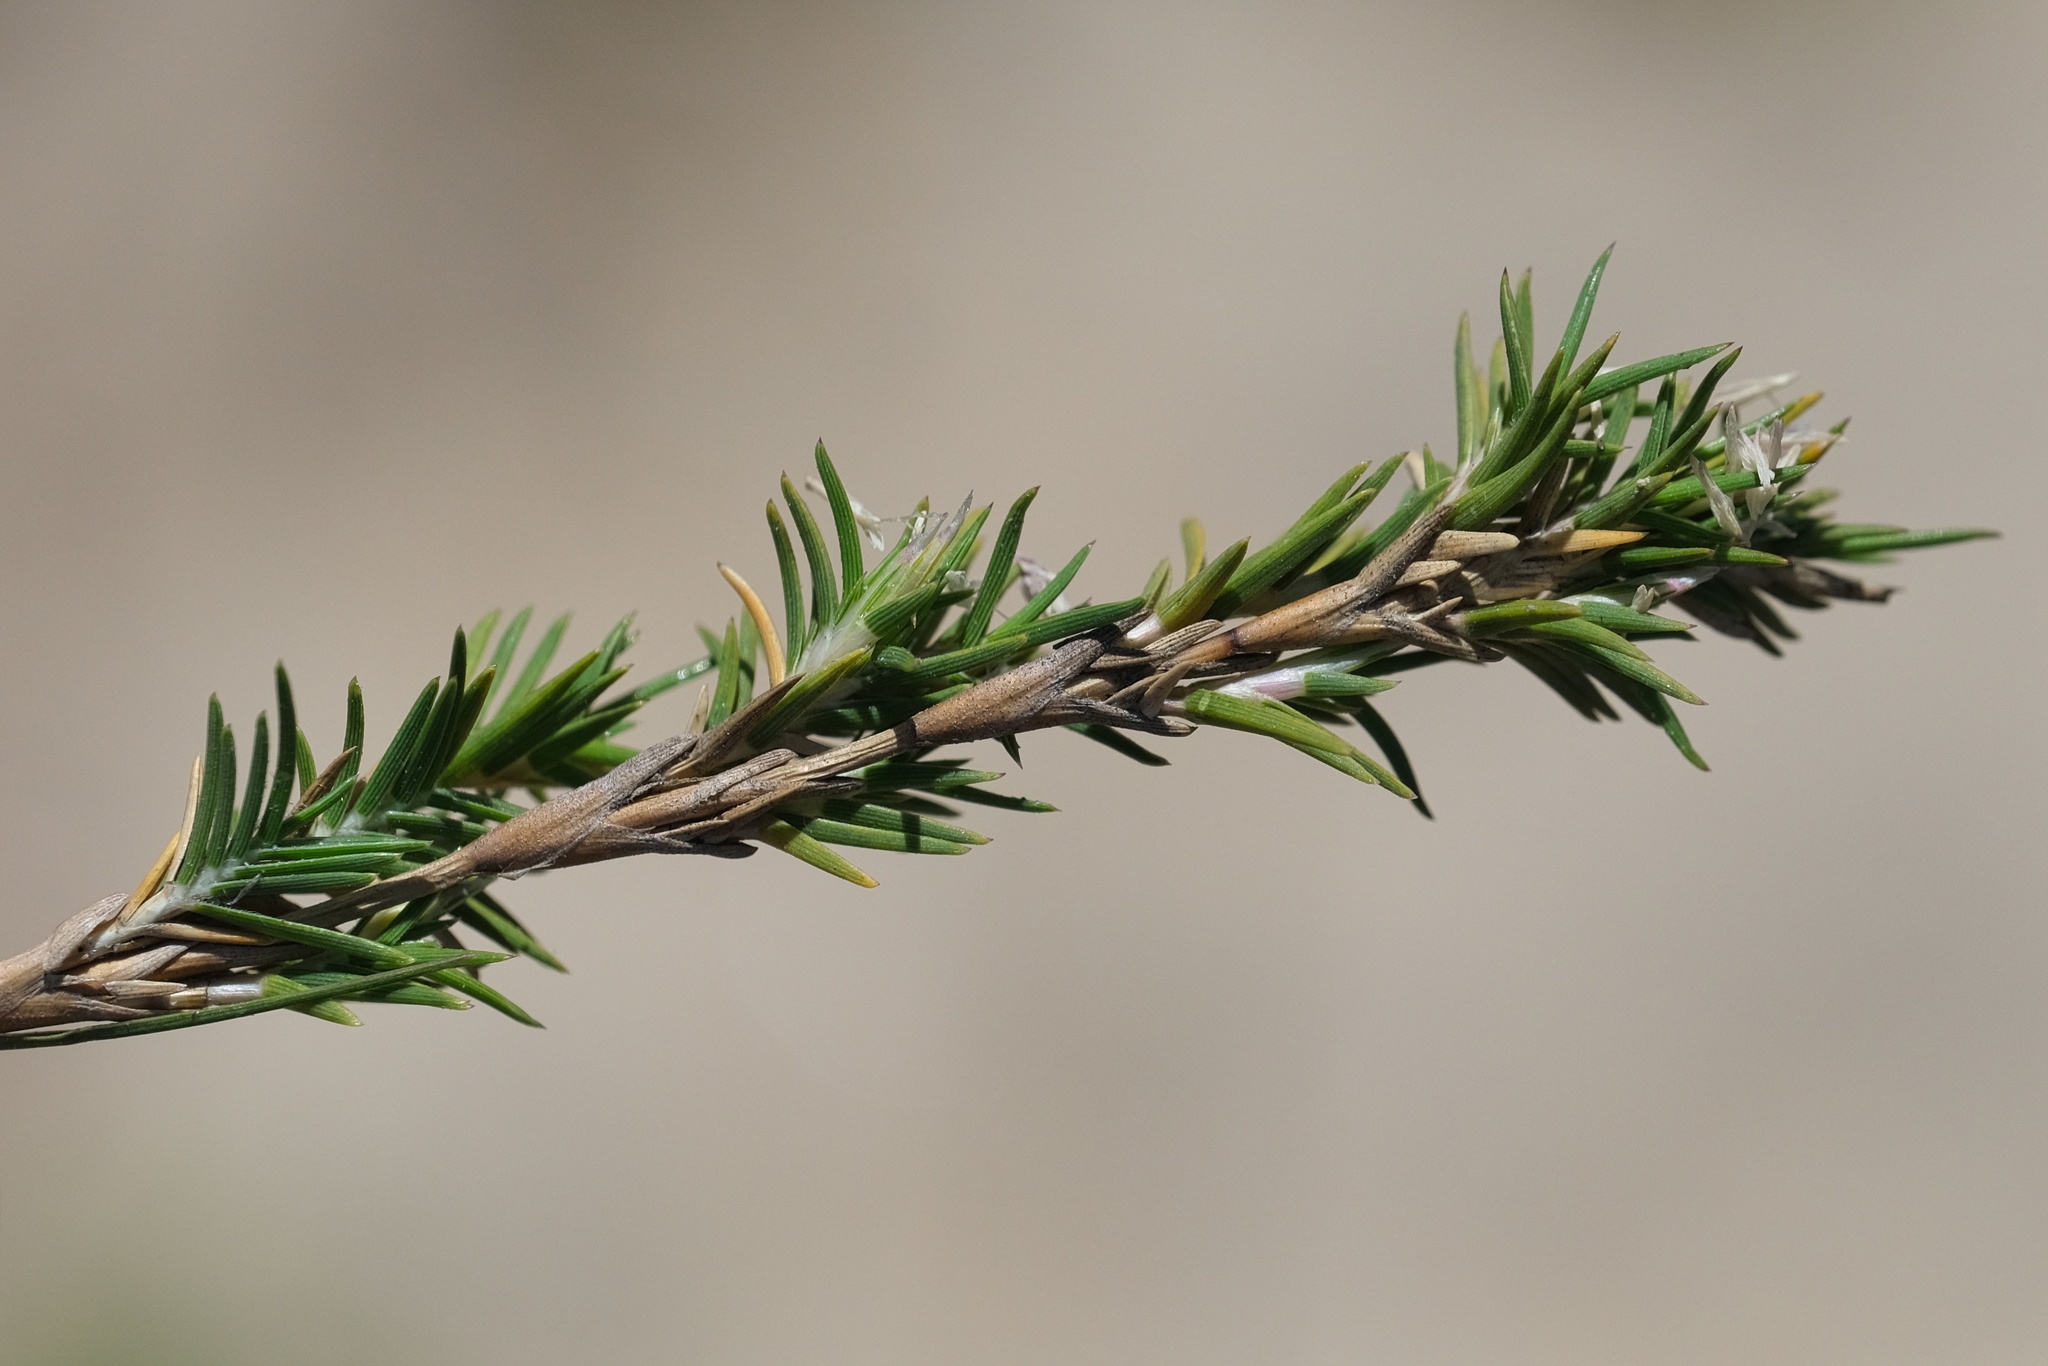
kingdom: Plantae
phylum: Tracheophyta
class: Liliopsida
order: Poales
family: Poaceae
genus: Distichlis
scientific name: Distichlis littoralis
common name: Shore grass
